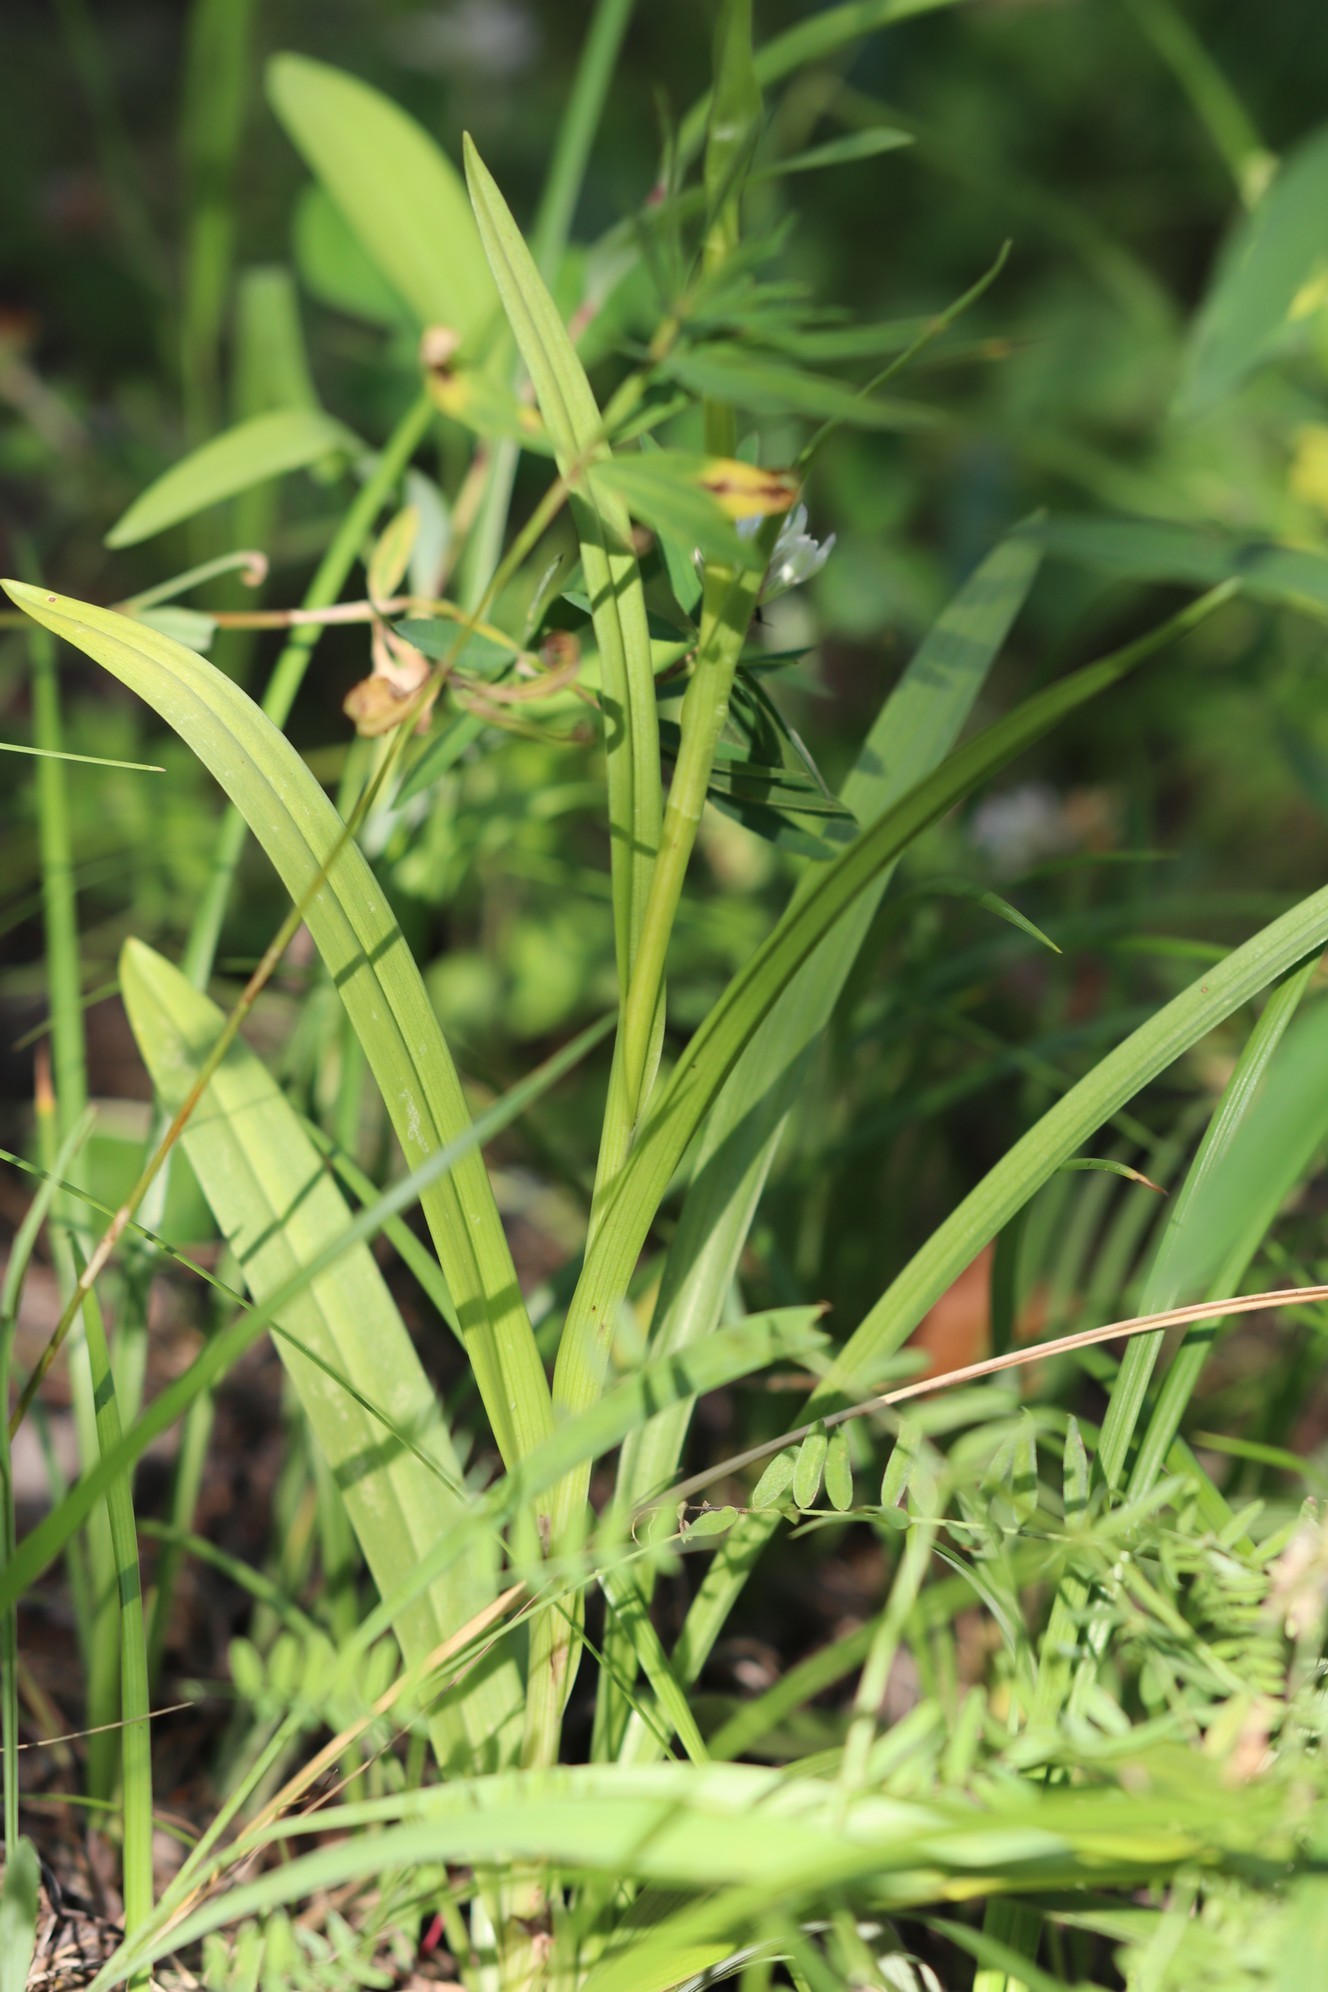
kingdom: Plantae
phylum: Tracheophyta
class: Liliopsida
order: Asparagales
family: Orchidaceae
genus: Gymnadenia
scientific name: Gymnadenia conopsea
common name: Fragrant orchid
